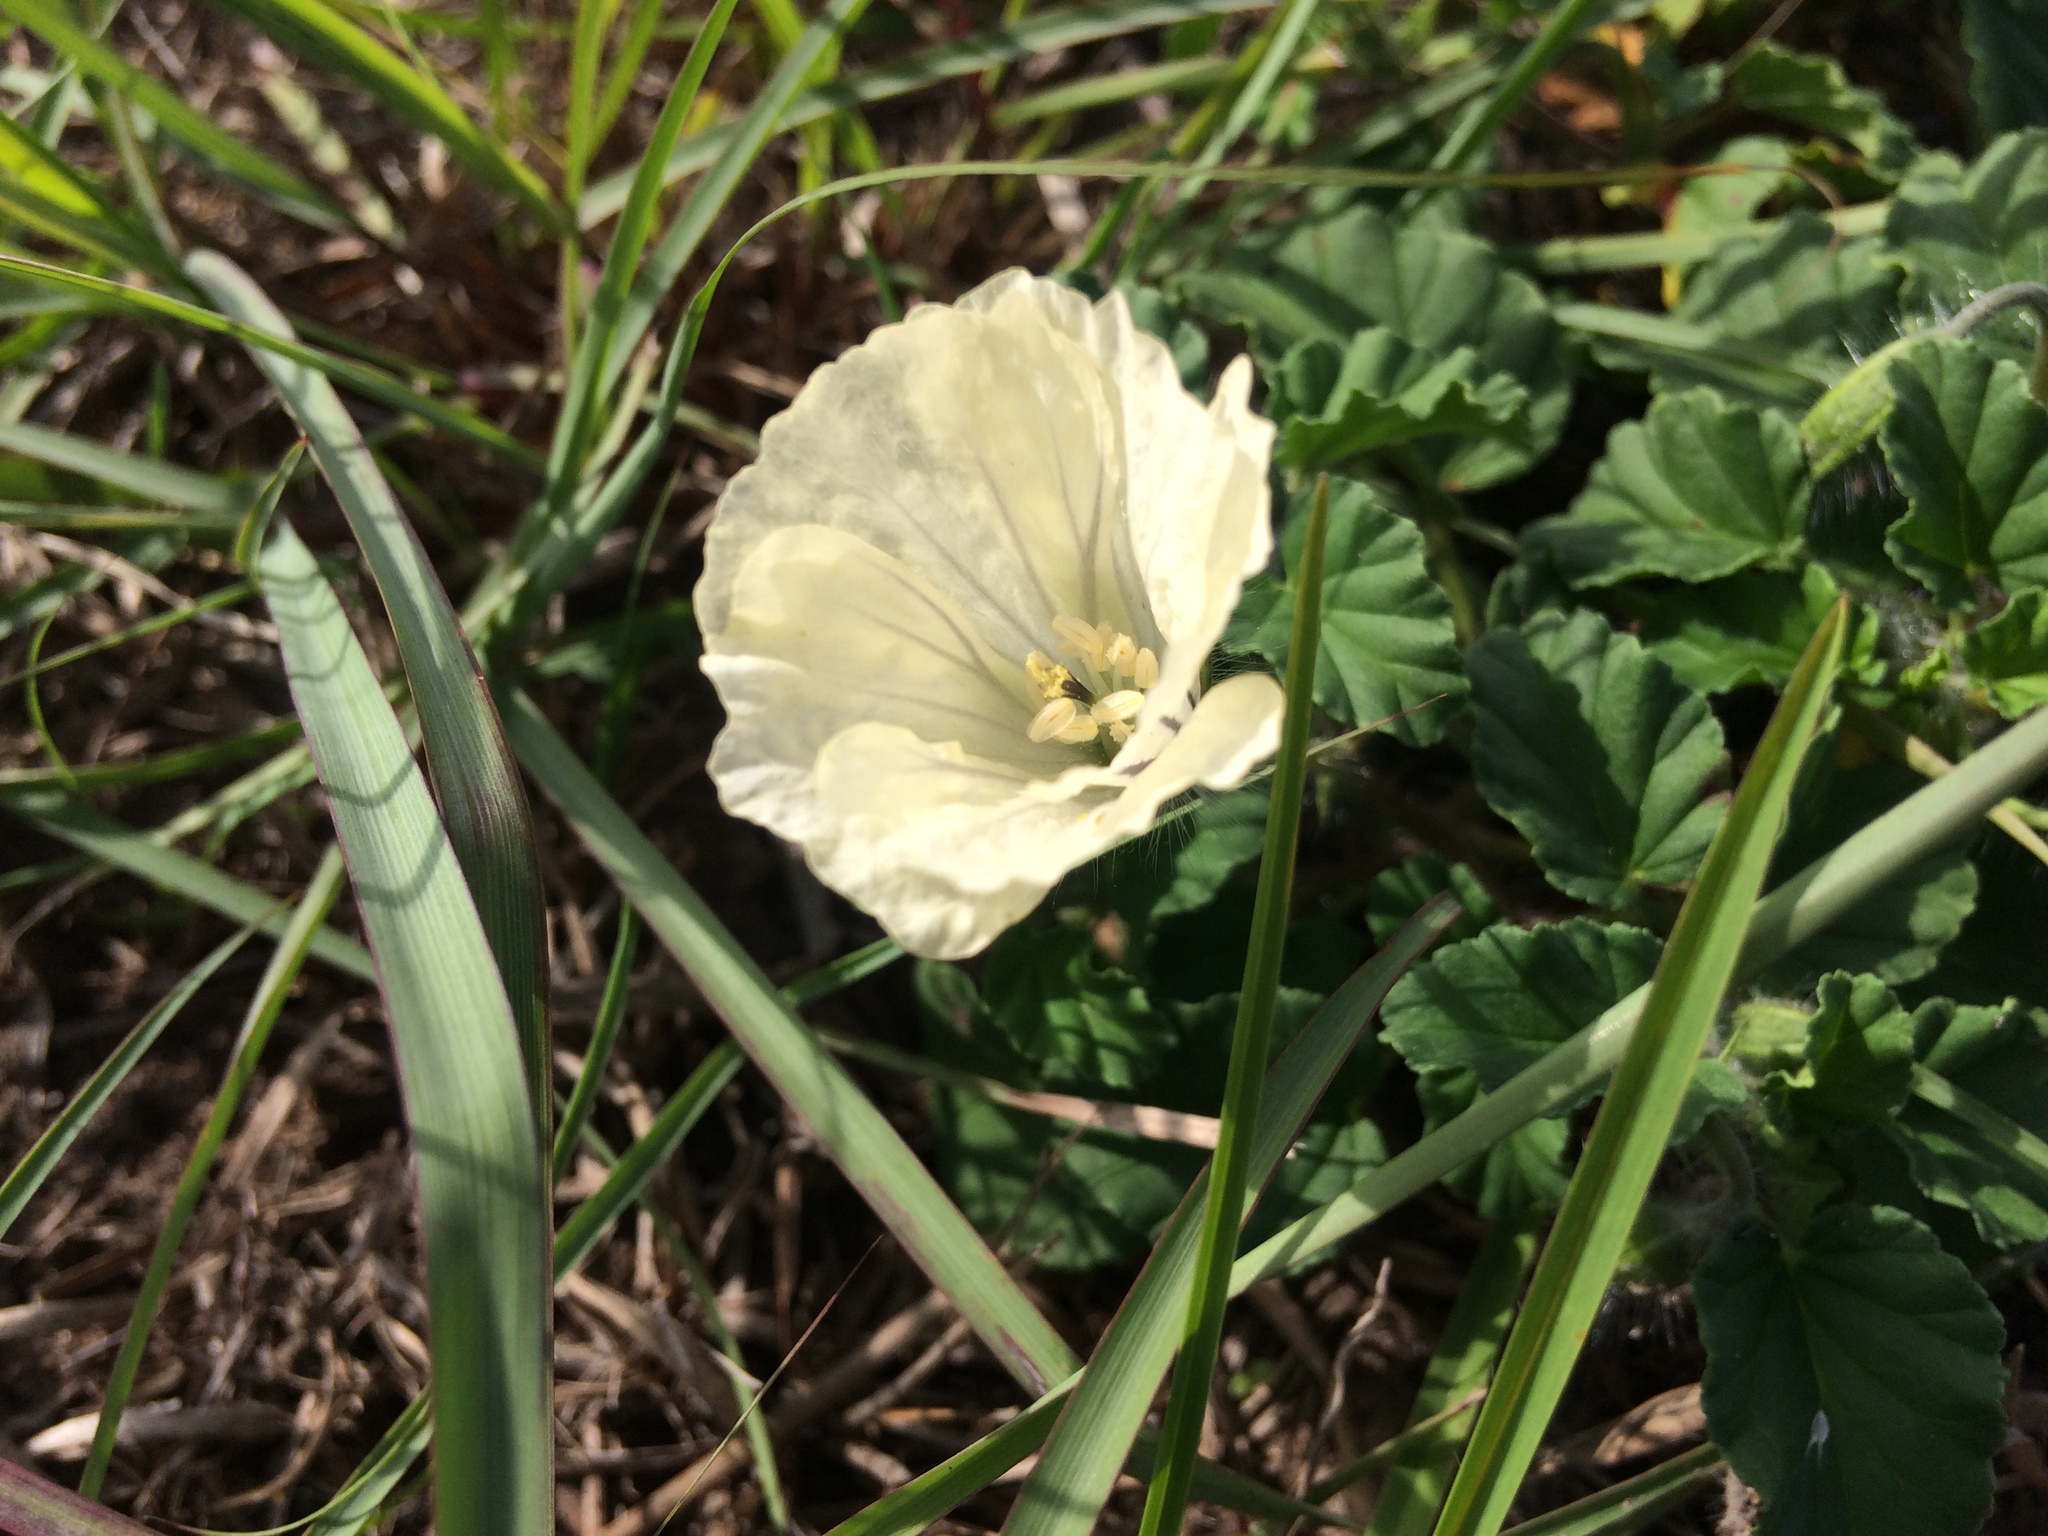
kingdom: Plantae
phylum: Tracheophyta
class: Magnoliopsida
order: Geraniales
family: Geraniaceae
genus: Monsonia
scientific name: Monsonia emarginata
